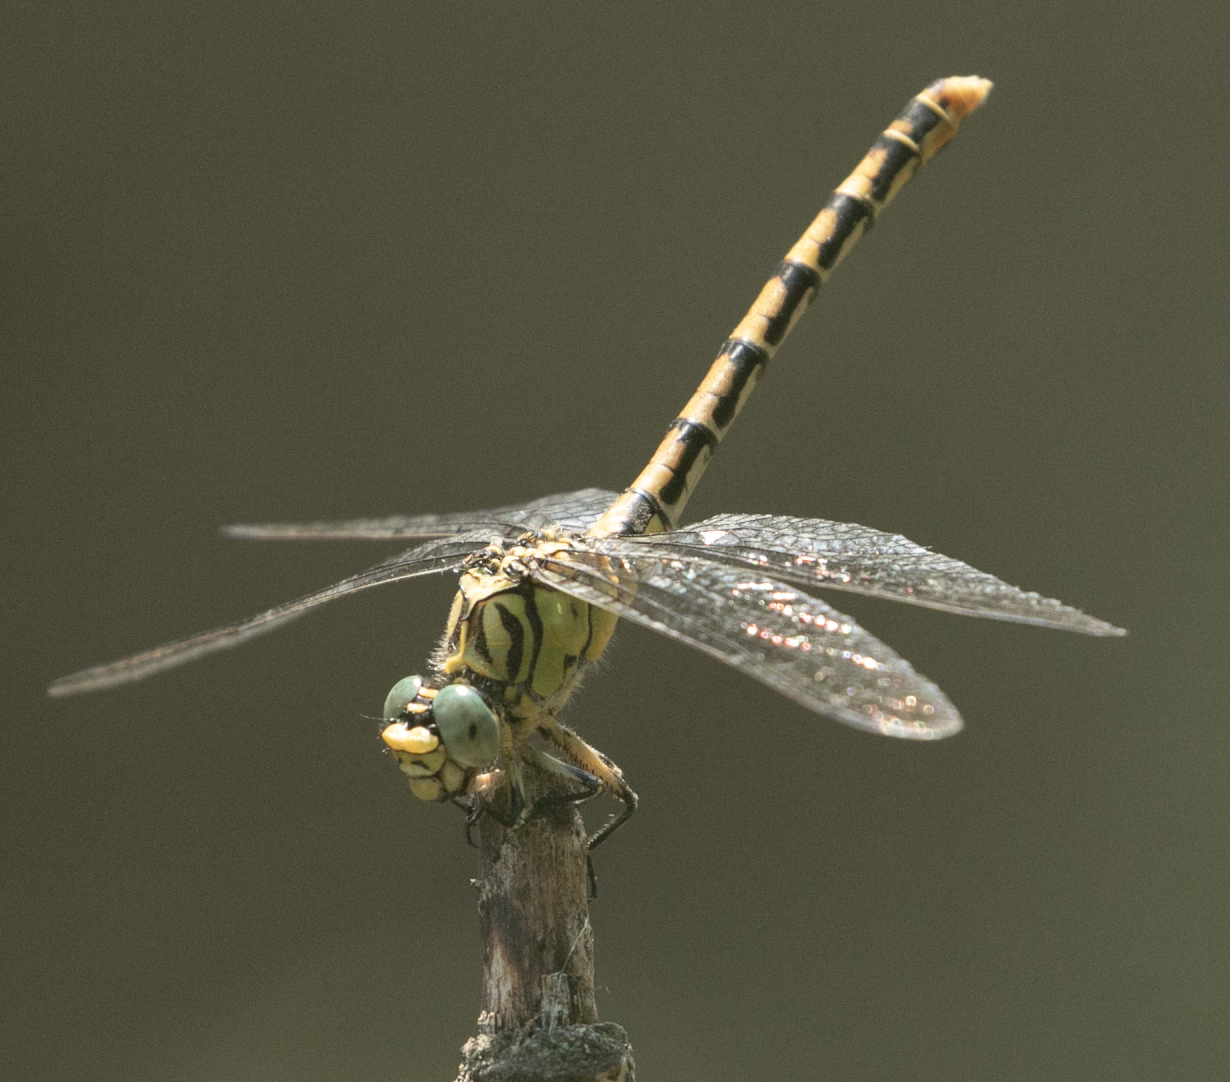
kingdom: Animalia
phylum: Arthropoda
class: Insecta
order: Odonata
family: Gomphidae
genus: Onychogomphus
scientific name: Onychogomphus forcipatus
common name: Small pincertail
